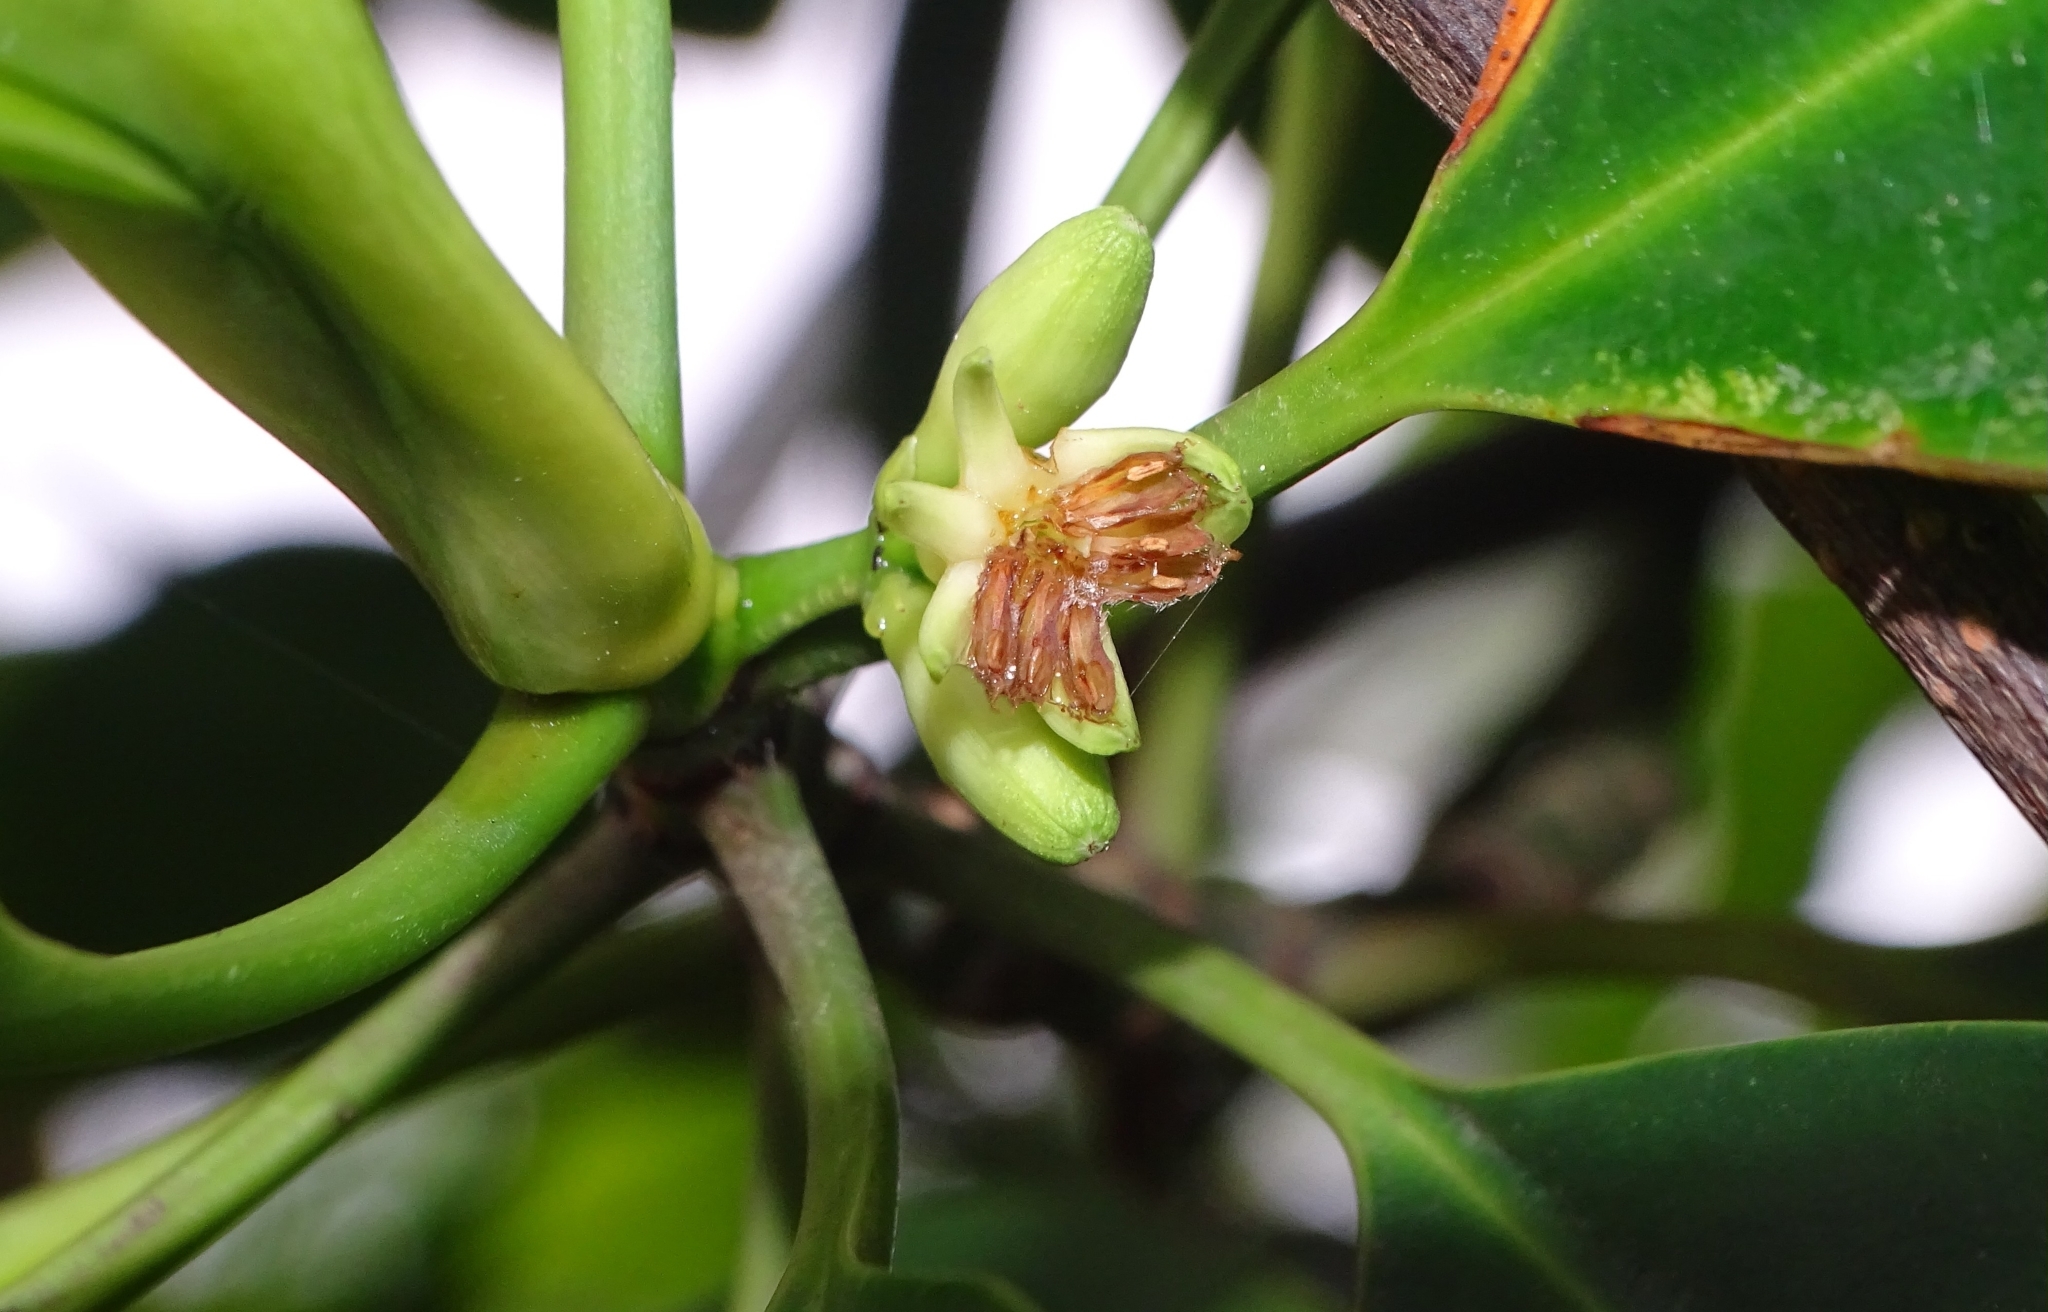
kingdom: Plantae
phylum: Tracheophyta
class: Magnoliopsida
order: Malpighiales
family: Rhizophoraceae
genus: Bruguiera
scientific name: Bruguiera cylindrica
